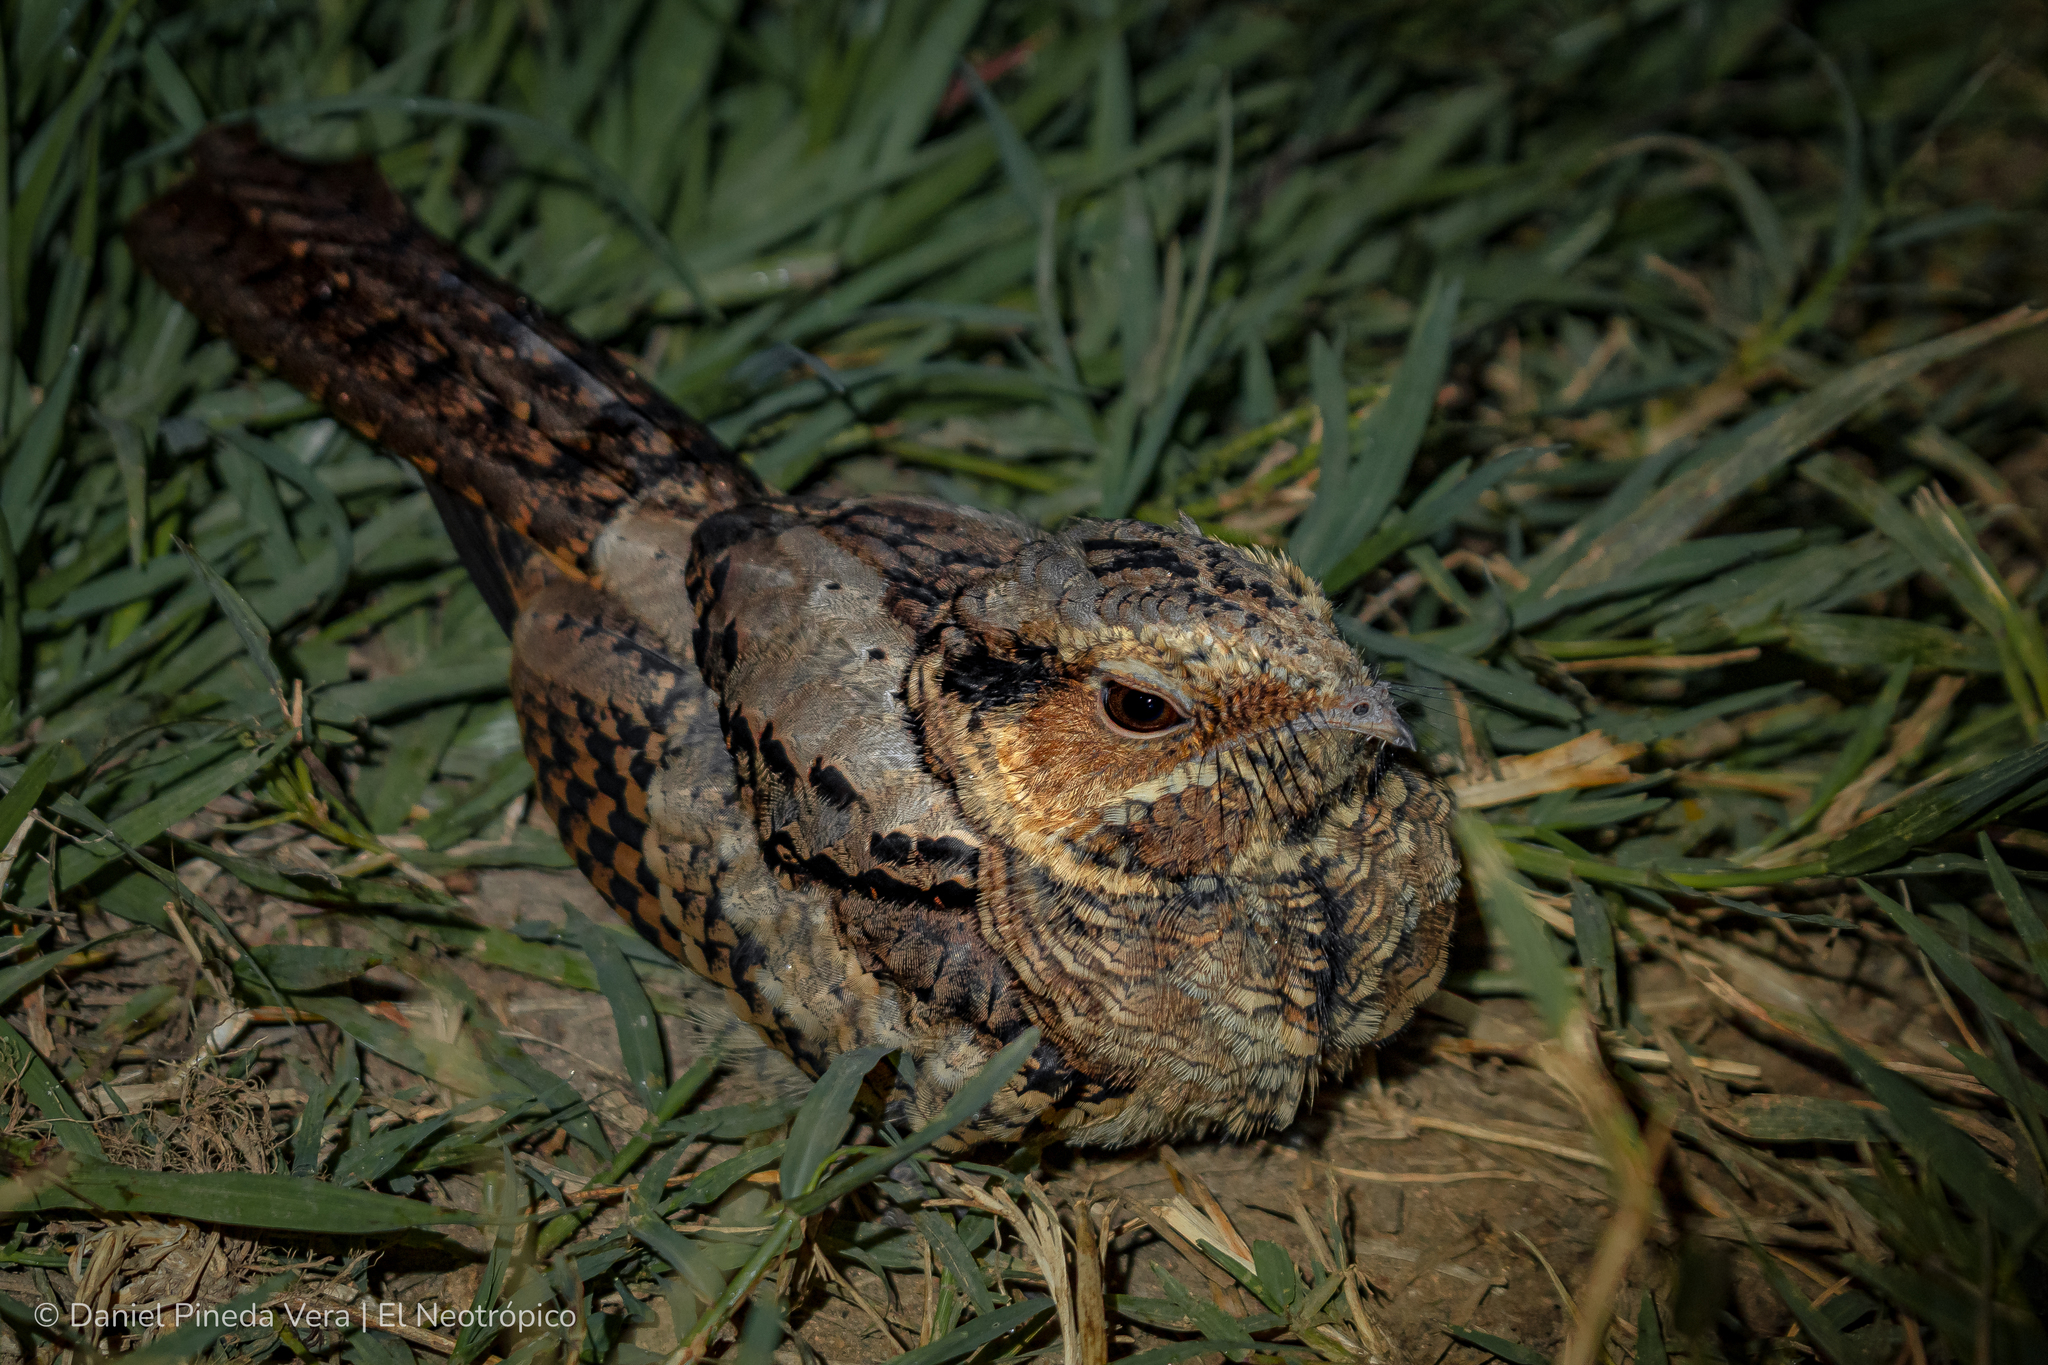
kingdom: Animalia
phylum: Chordata
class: Aves
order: Caprimulgiformes
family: Caprimulgidae
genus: Nyctidromus
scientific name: Nyctidromus albicollis
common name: Pauraque
